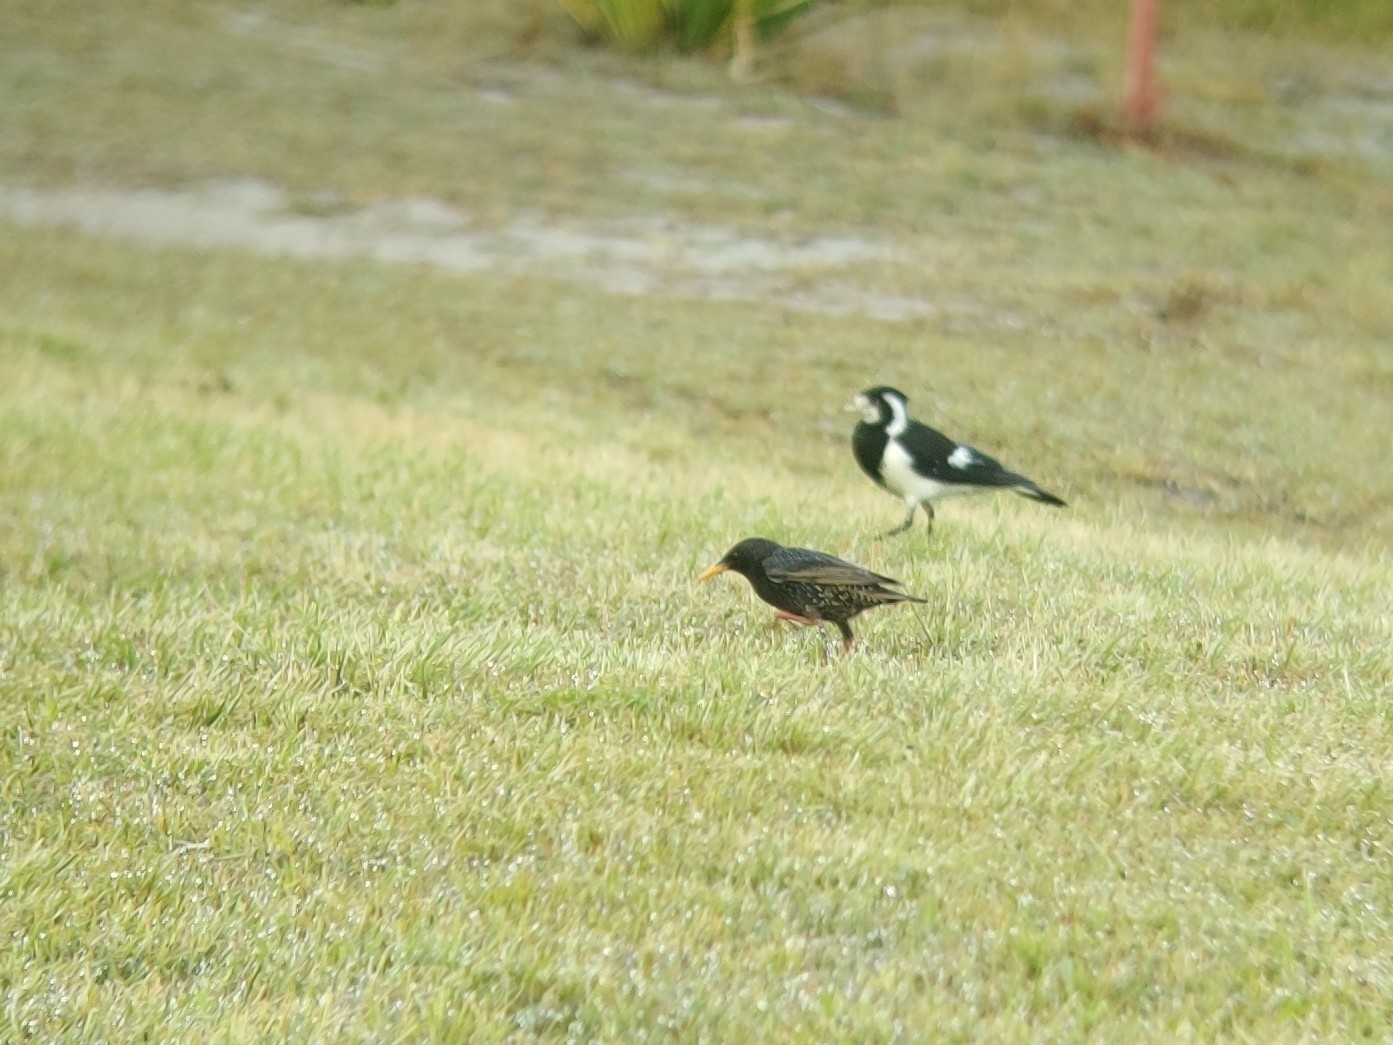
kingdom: Animalia
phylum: Chordata
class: Aves
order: Passeriformes
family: Sturnidae
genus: Sturnus
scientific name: Sturnus vulgaris
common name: Common starling
